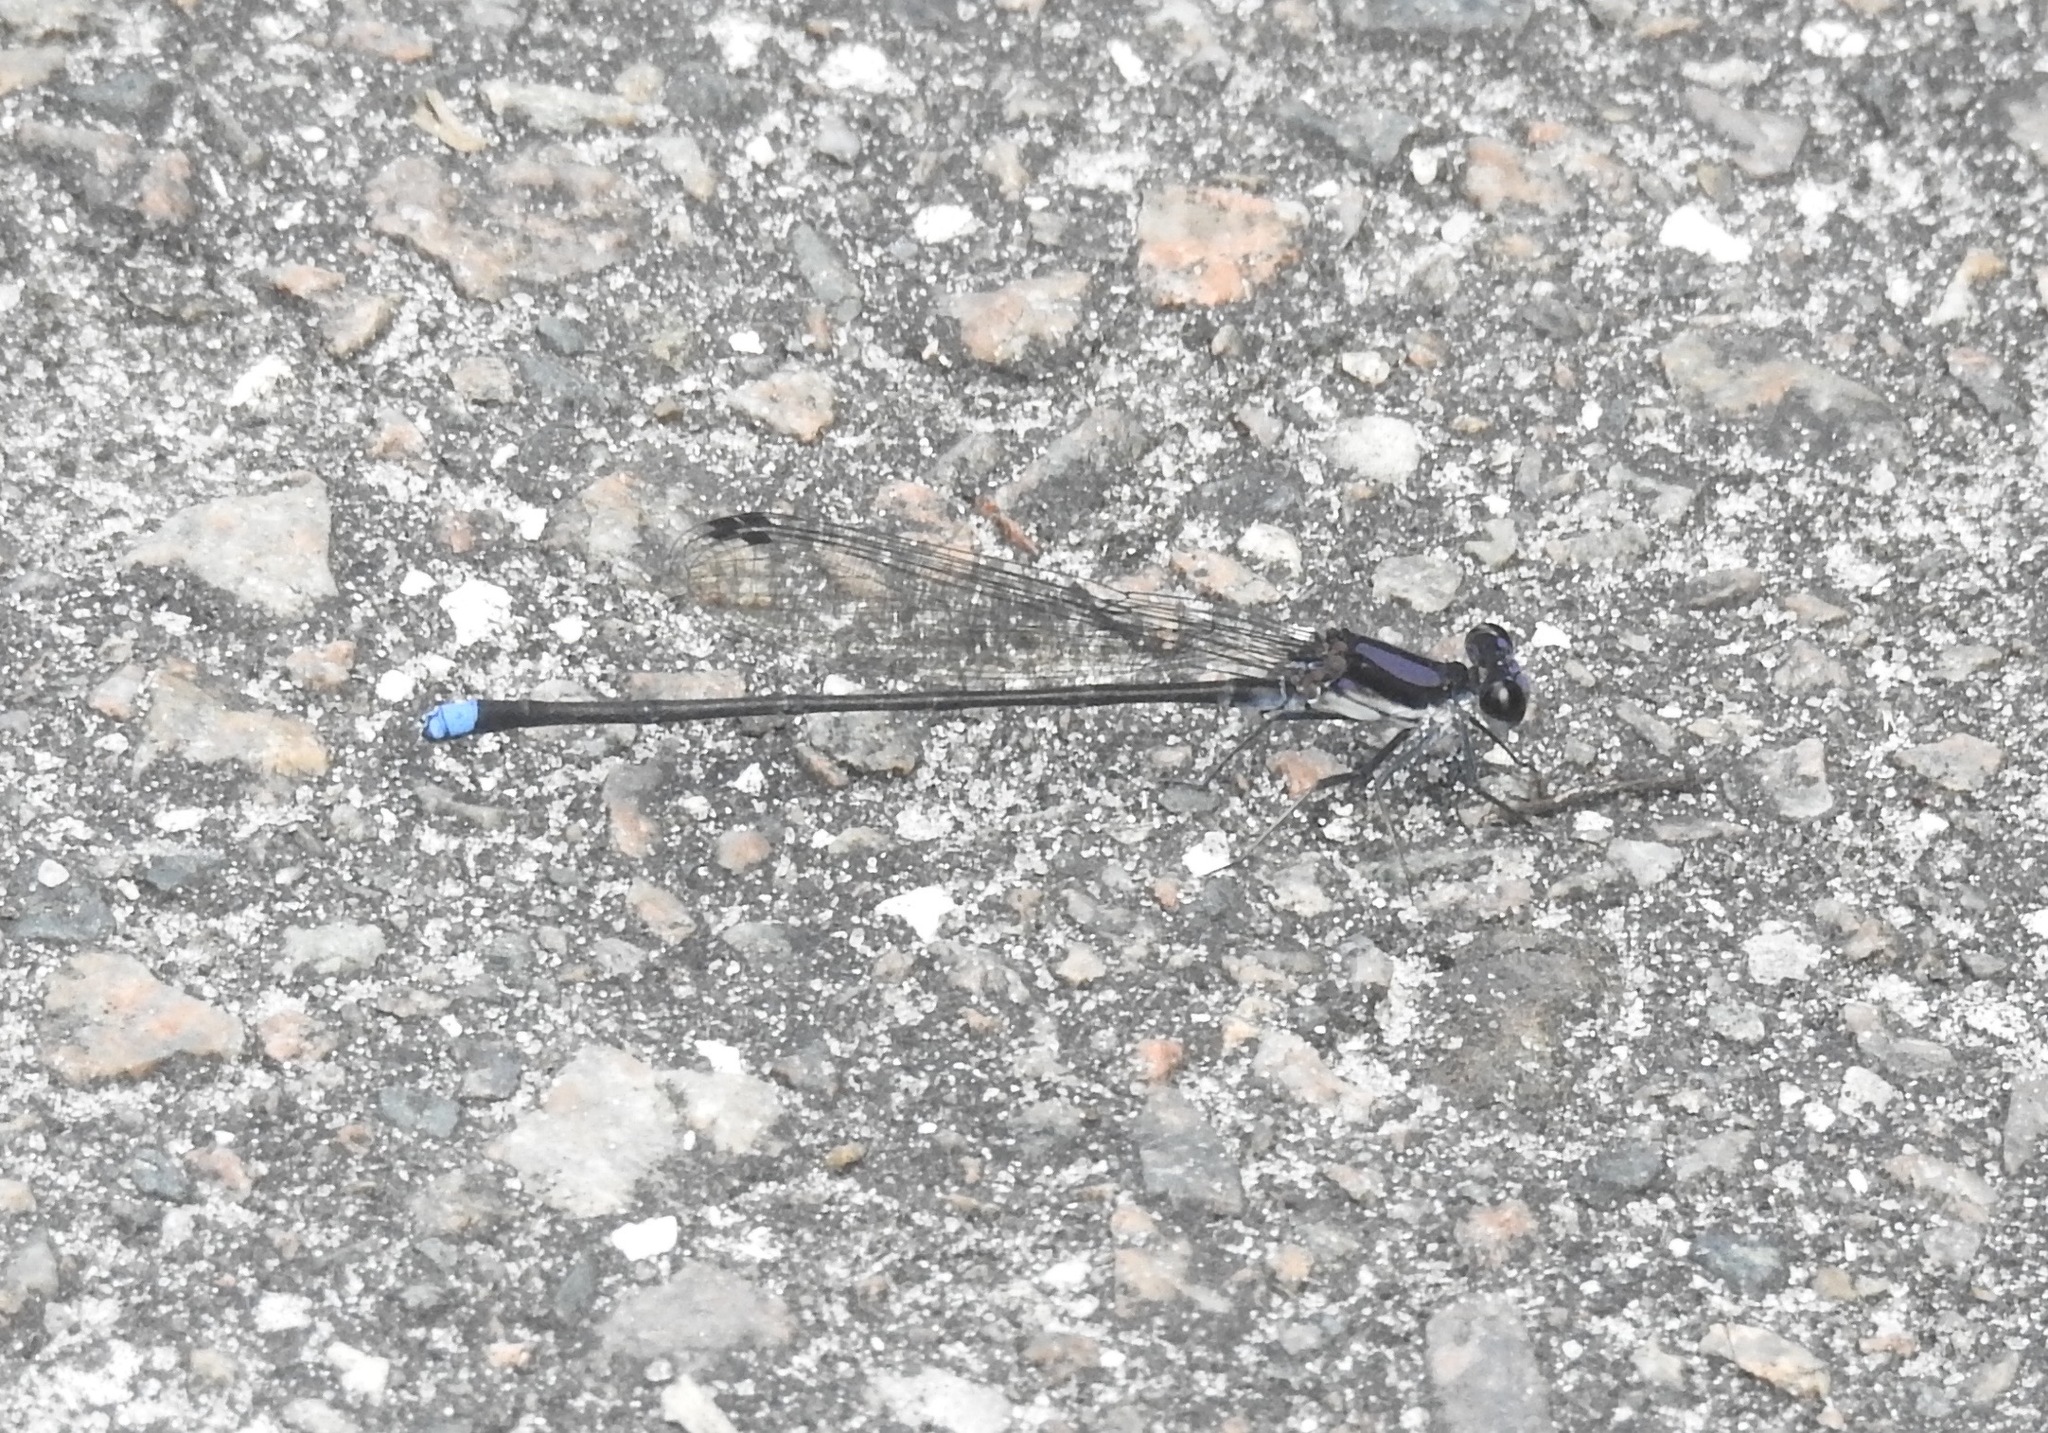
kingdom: Animalia
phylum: Arthropoda
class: Insecta
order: Odonata
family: Coenagrionidae
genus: Argia
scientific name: Argia tibialis
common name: Blue-tipped dancer
